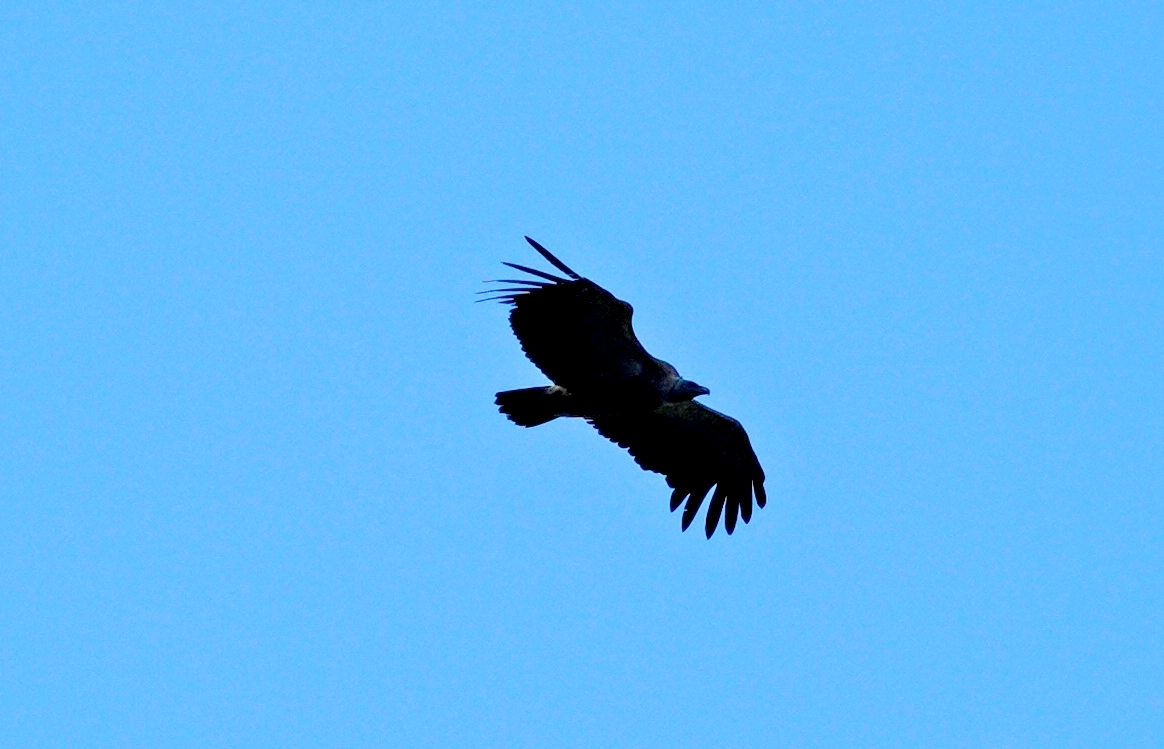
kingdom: Animalia
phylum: Chordata
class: Aves
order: Accipitriformes
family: Accipitridae
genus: Gyps
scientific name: Gyps himalayensis
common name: Himalayan griffon
